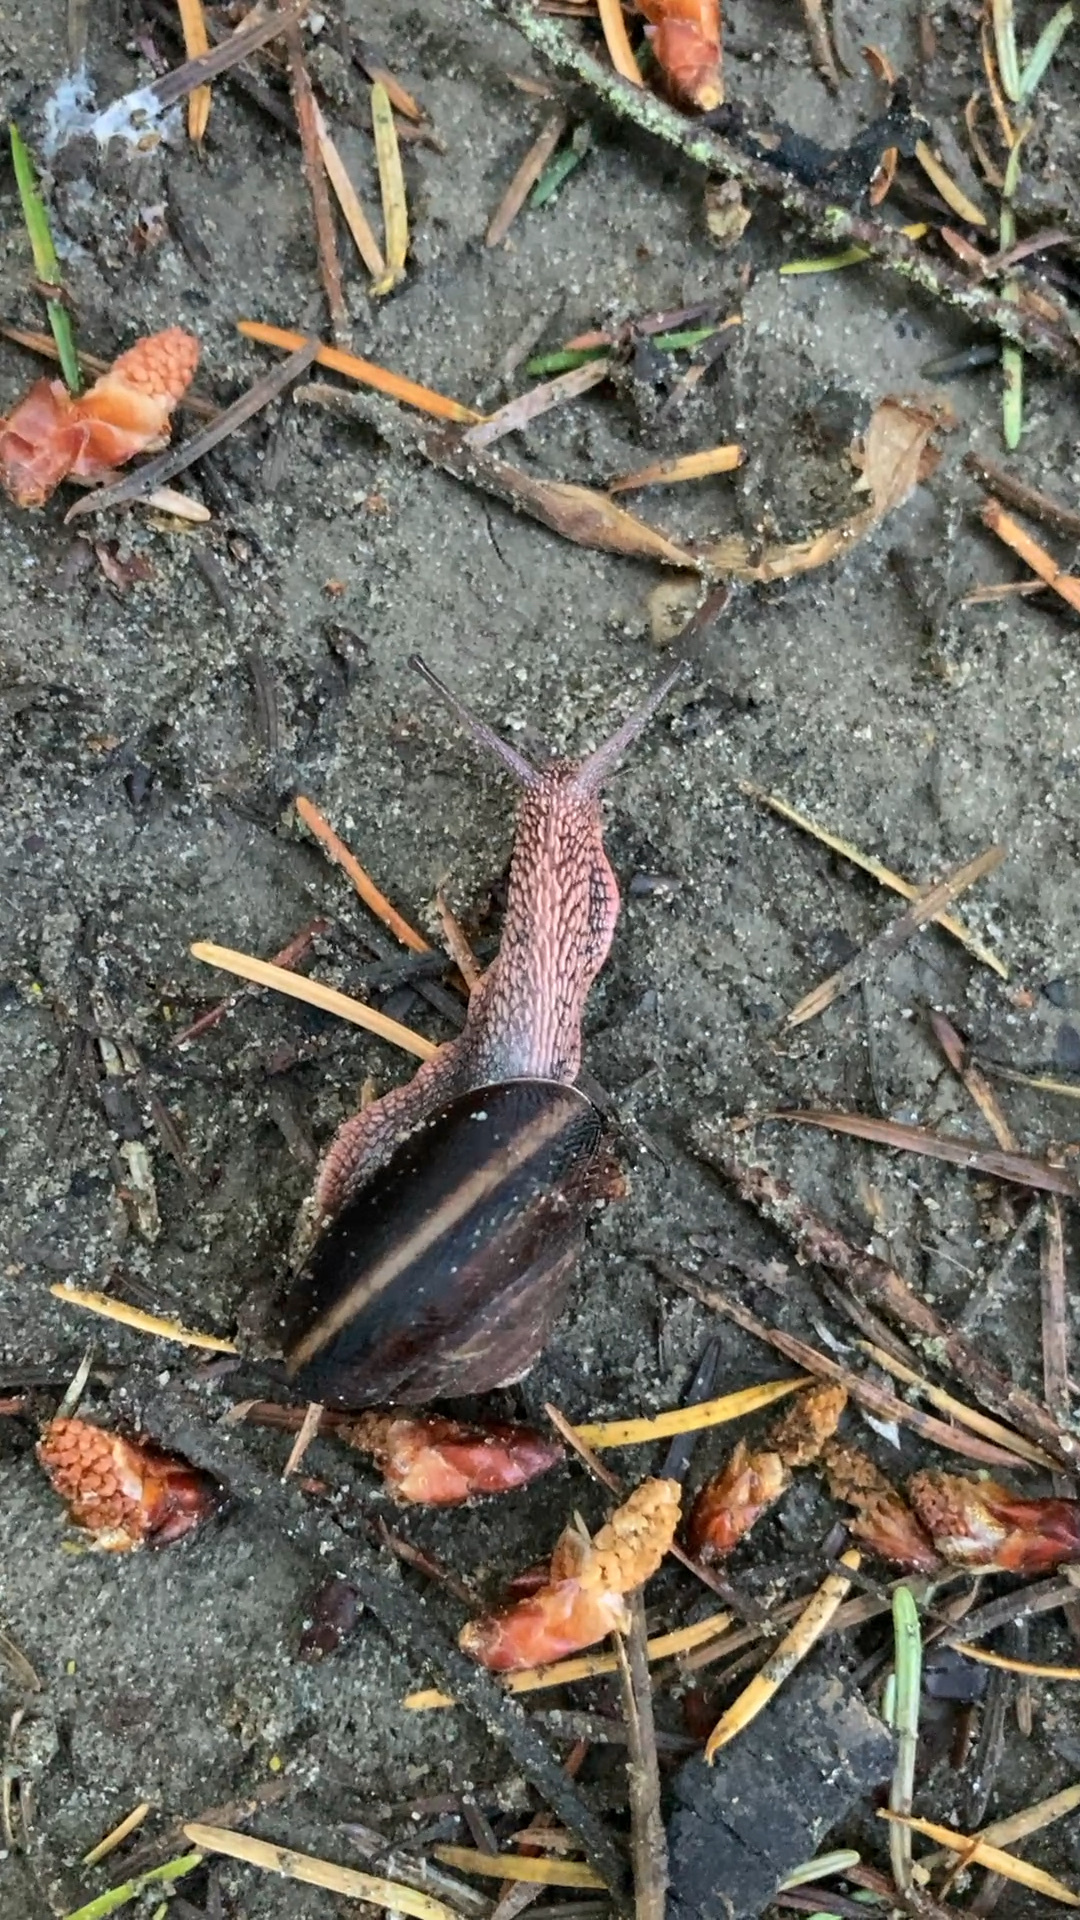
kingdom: Animalia
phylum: Mollusca
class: Gastropoda
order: Stylommatophora
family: Xanthonychidae
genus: Monadenia
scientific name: Monadenia fidelis
